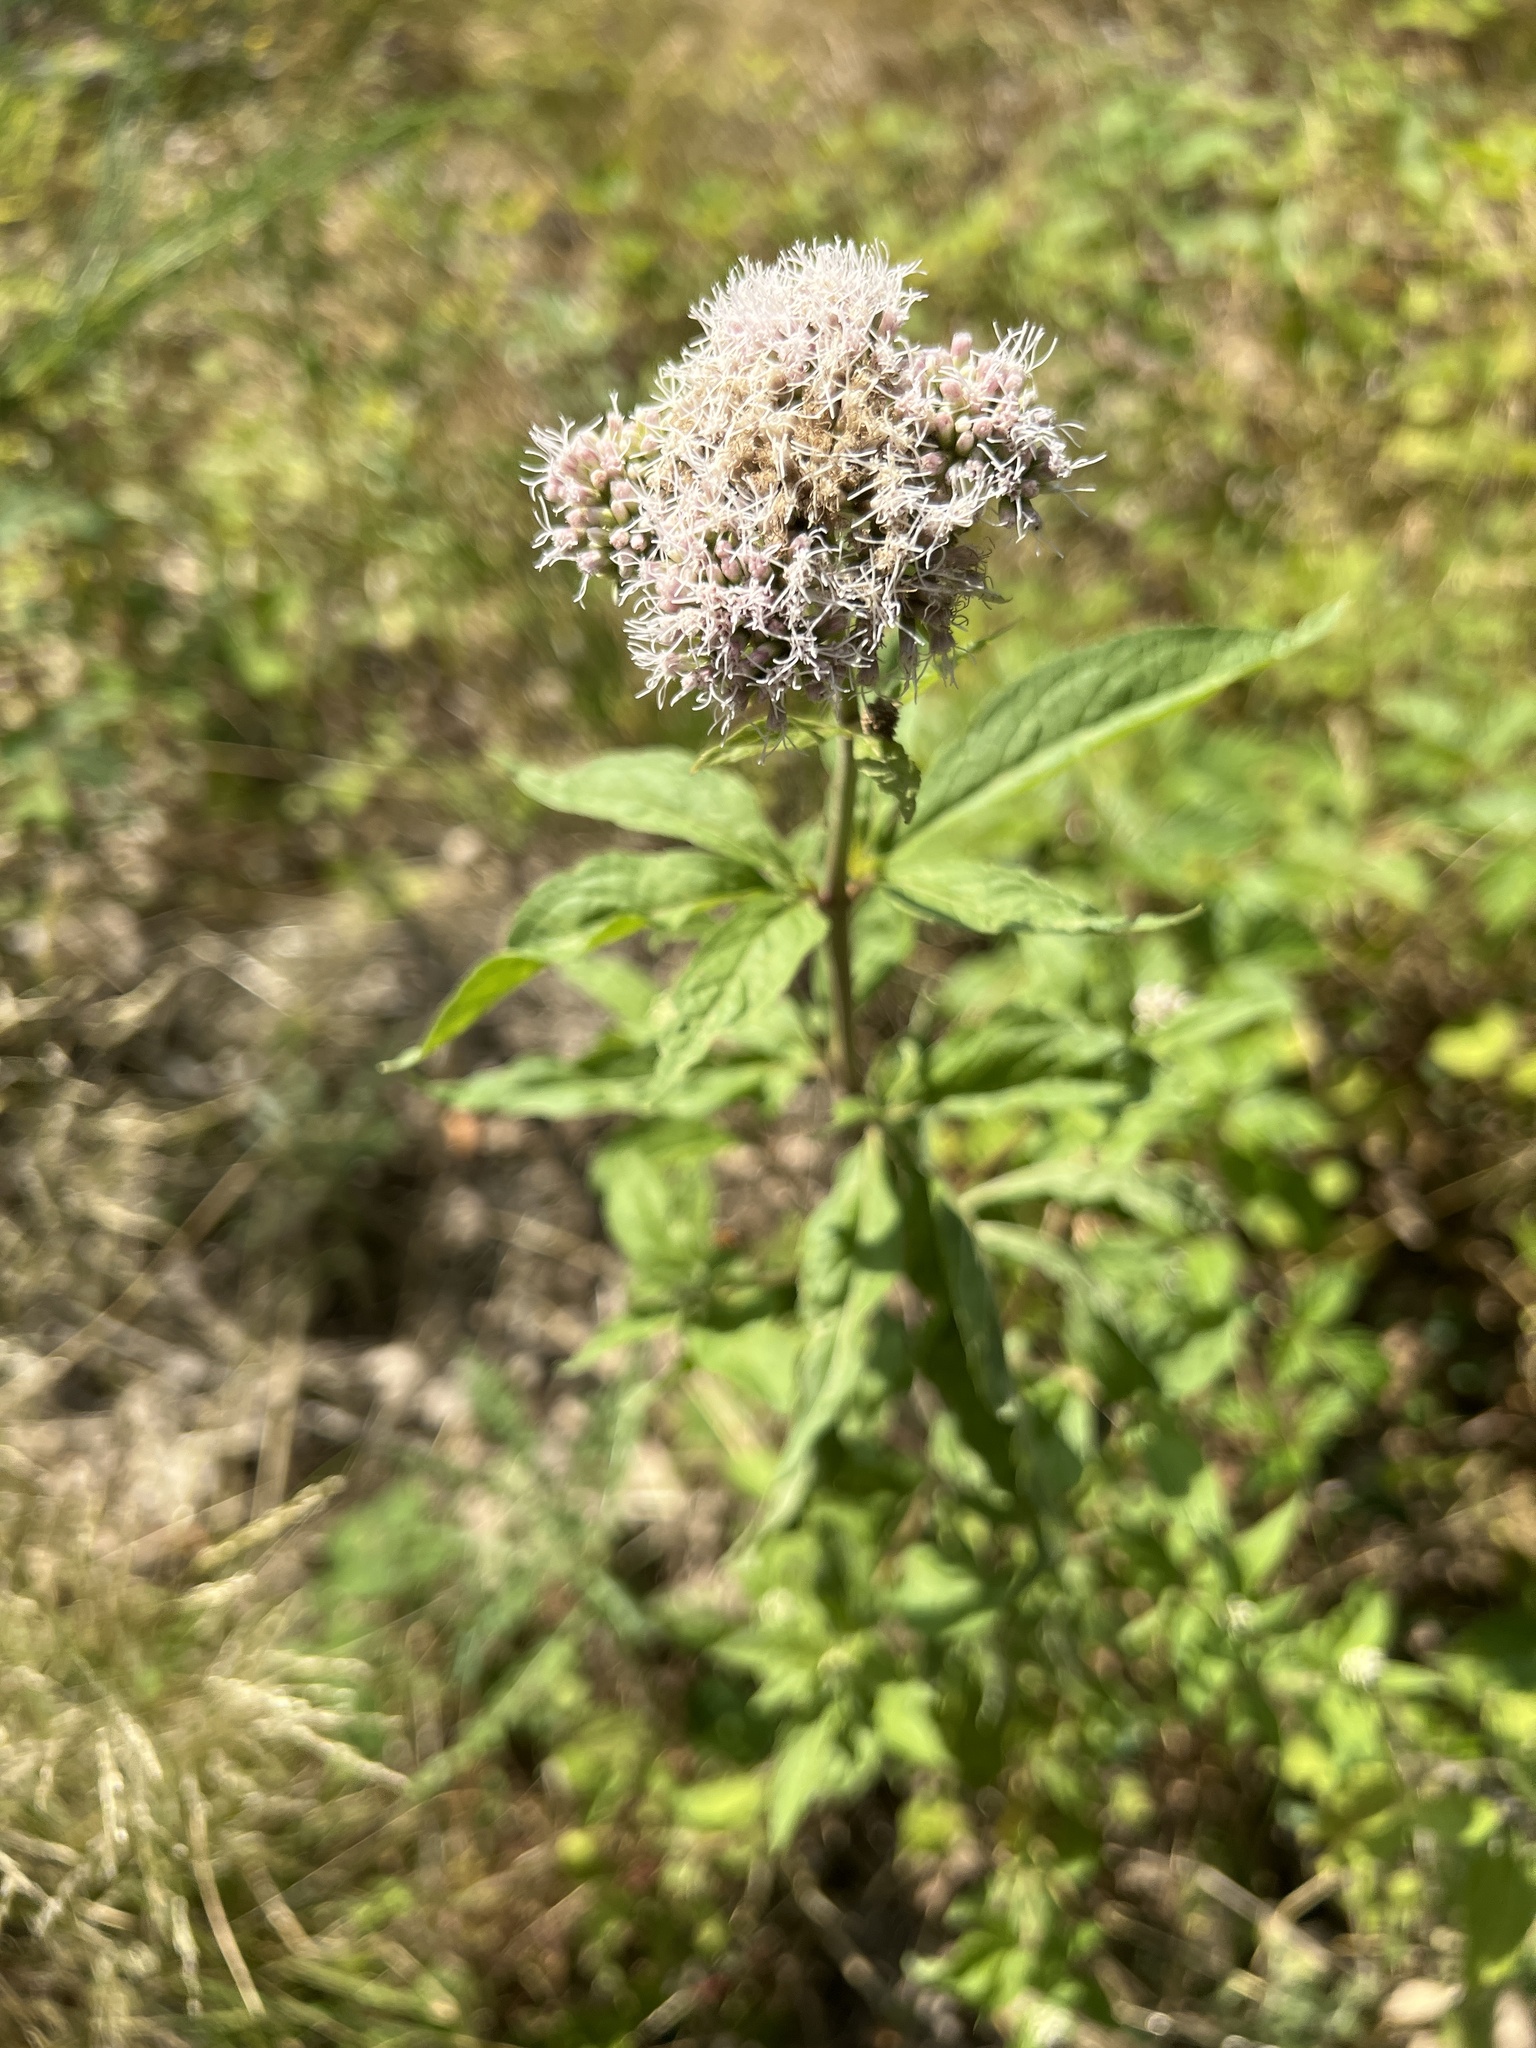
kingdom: Plantae
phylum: Tracheophyta
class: Magnoliopsida
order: Asterales
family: Asteraceae
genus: Eupatorium
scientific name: Eupatorium cannabinum
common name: Hemp-agrimony
